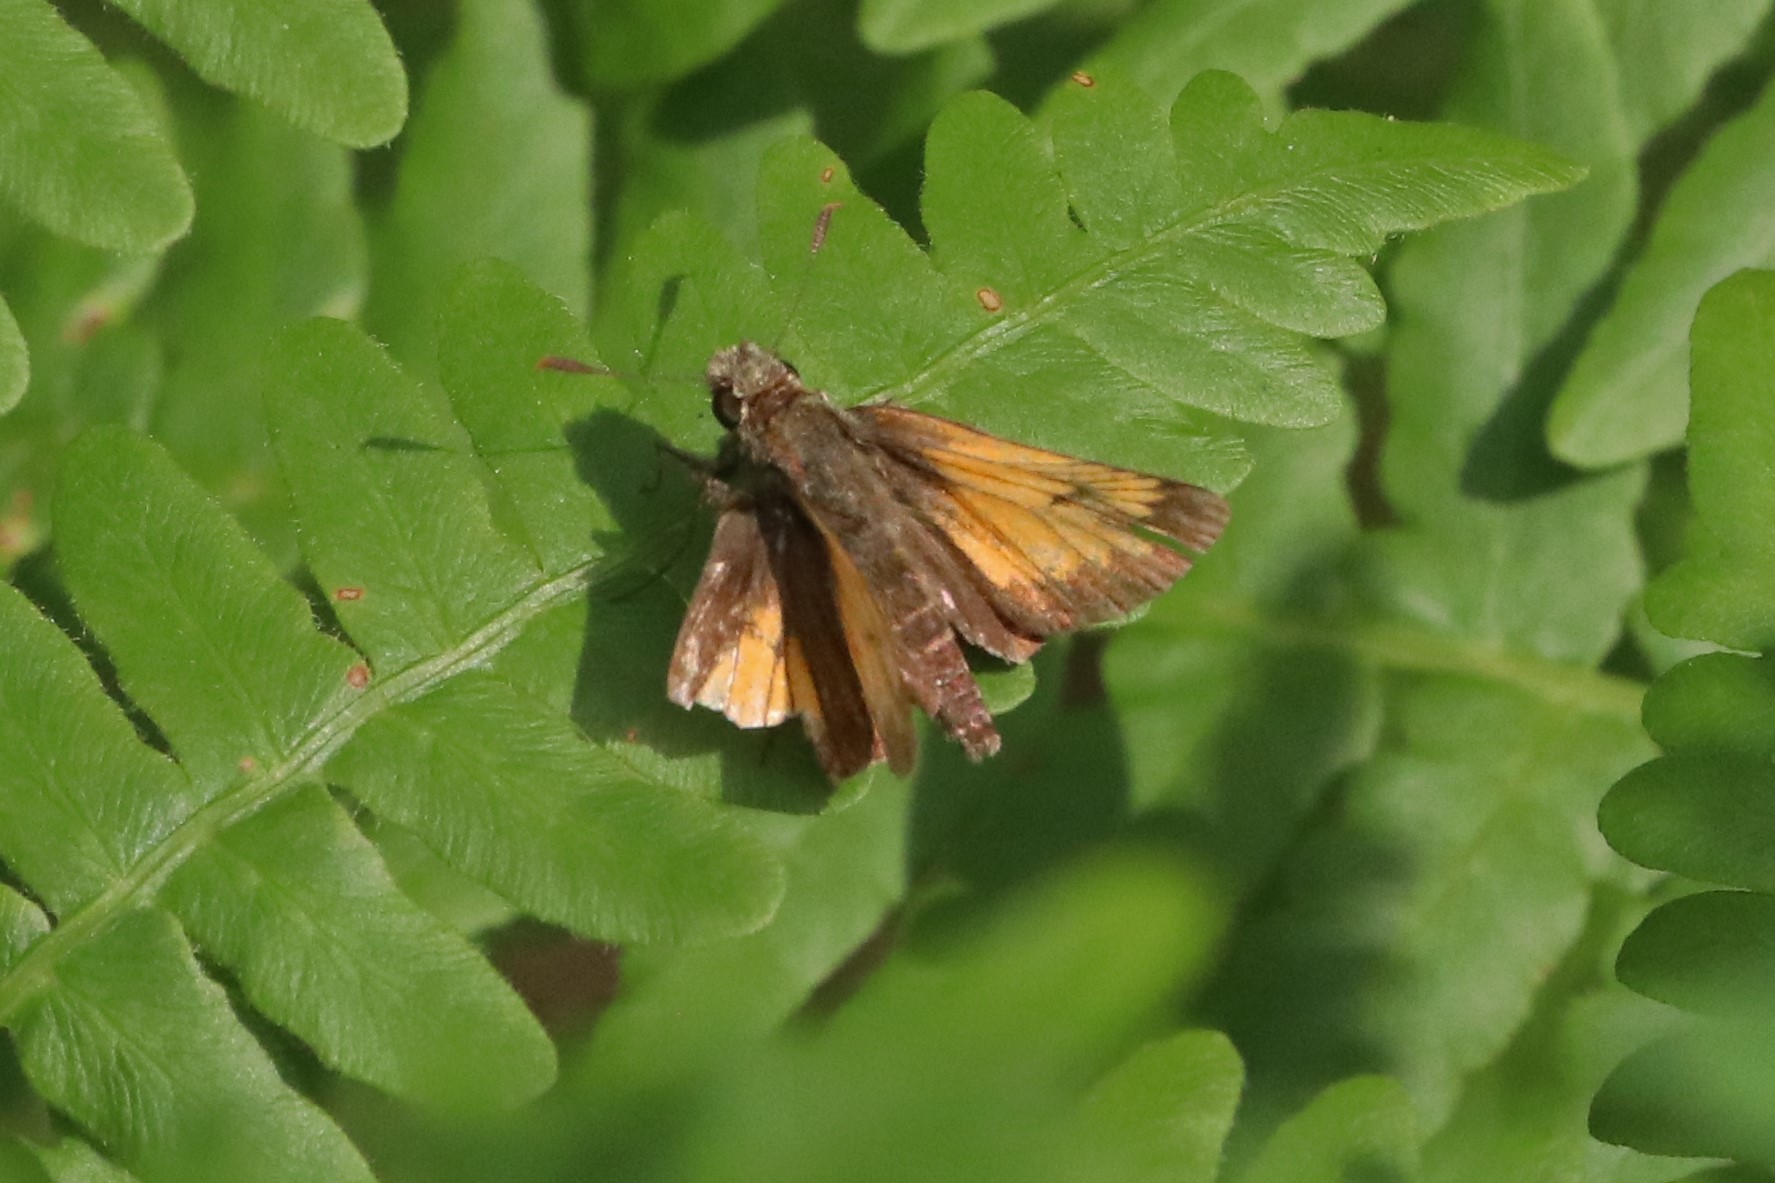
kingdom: Animalia
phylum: Arthropoda
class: Insecta
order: Lepidoptera
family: Hesperiidae
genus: Lon
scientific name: Lon hobomok
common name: Hobomok skipper
